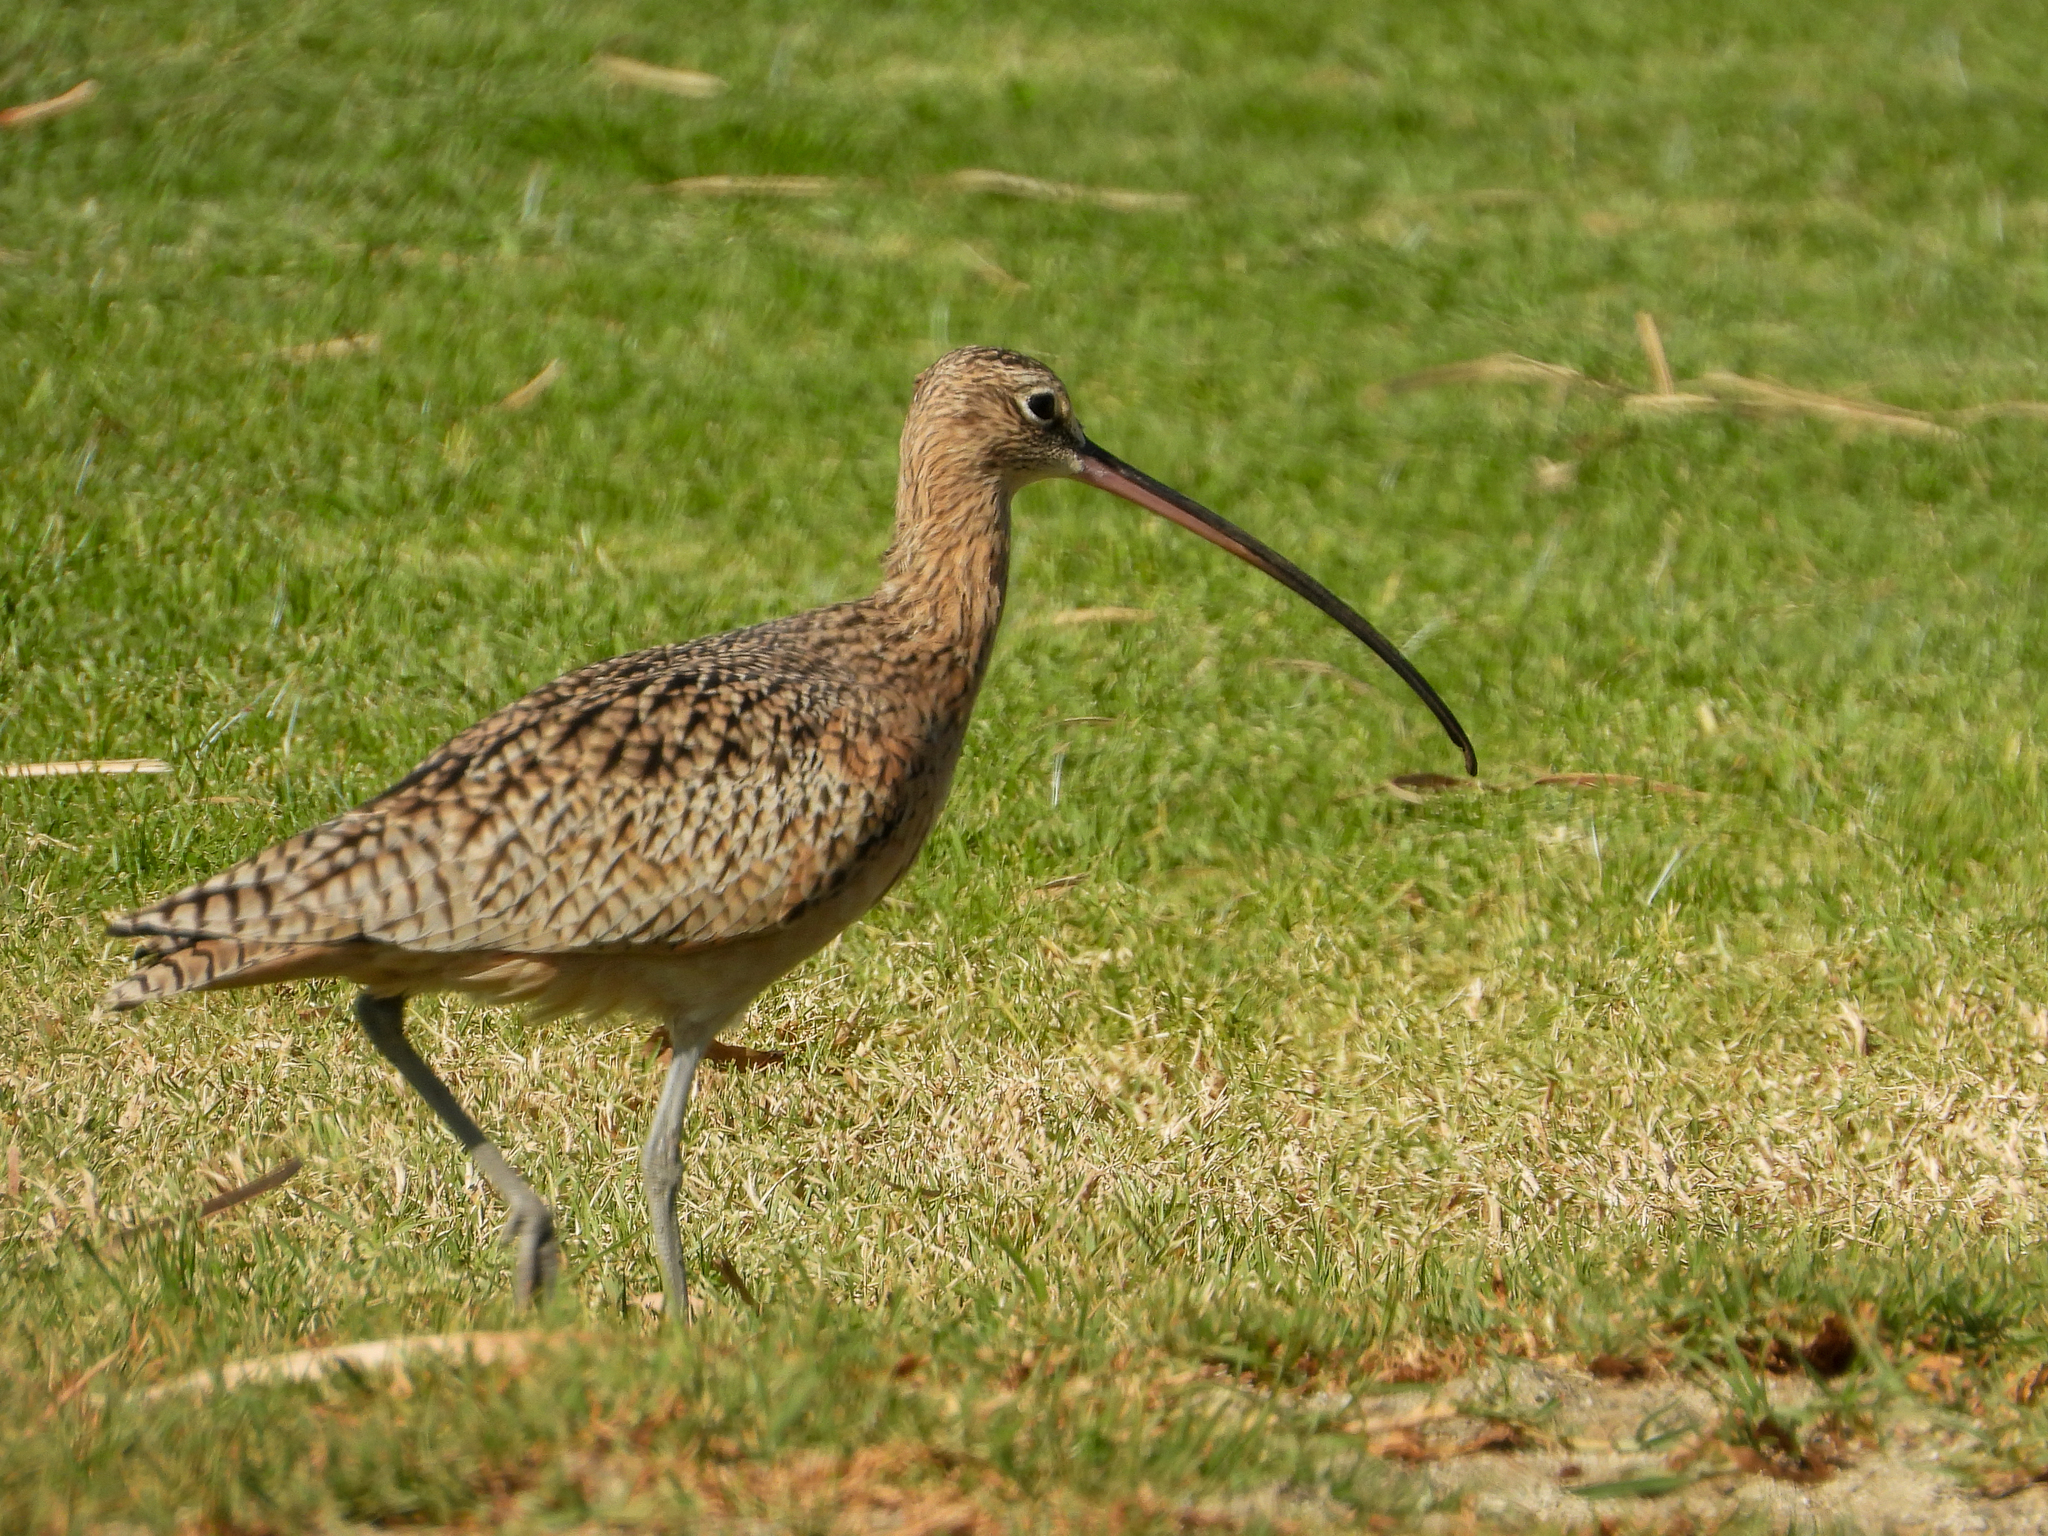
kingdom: Animalia
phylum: Chordata
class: Aves
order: Charadriiformes
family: Scolopacidae
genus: Numenius
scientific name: Numenius americanus
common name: Long-billed curlew
